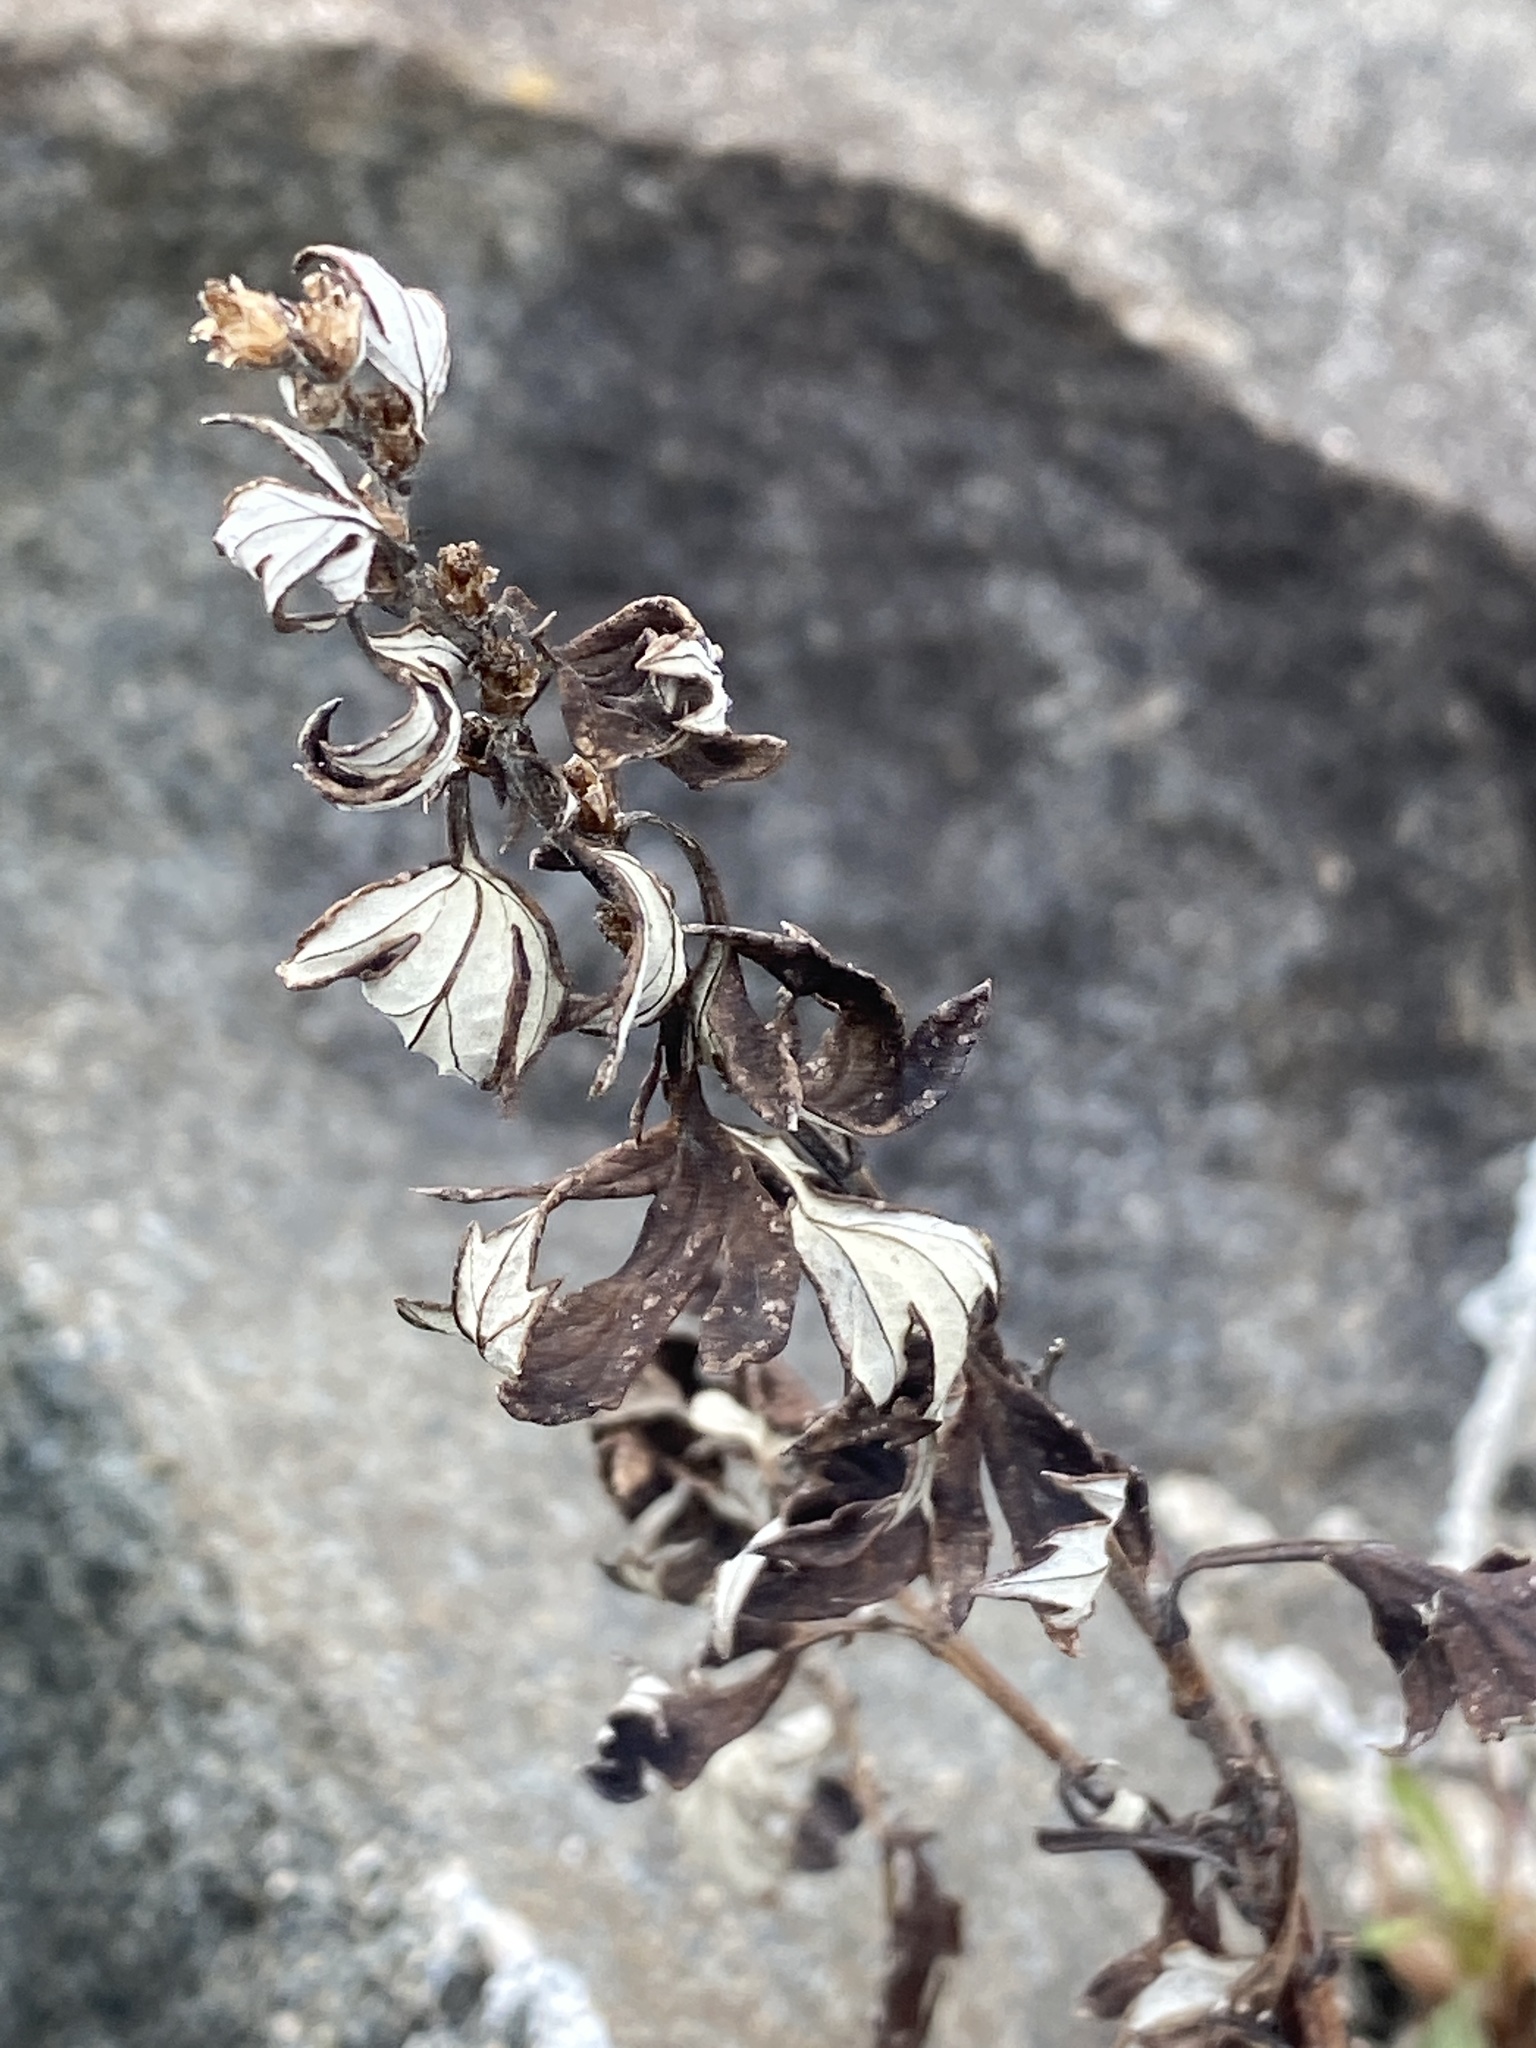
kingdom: Plantae
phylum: Tracheophyta
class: Magnoliopsida
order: Asterales
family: Asteraceae
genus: Artemisia
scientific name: Artemisia vulgaris
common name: Mugwort
